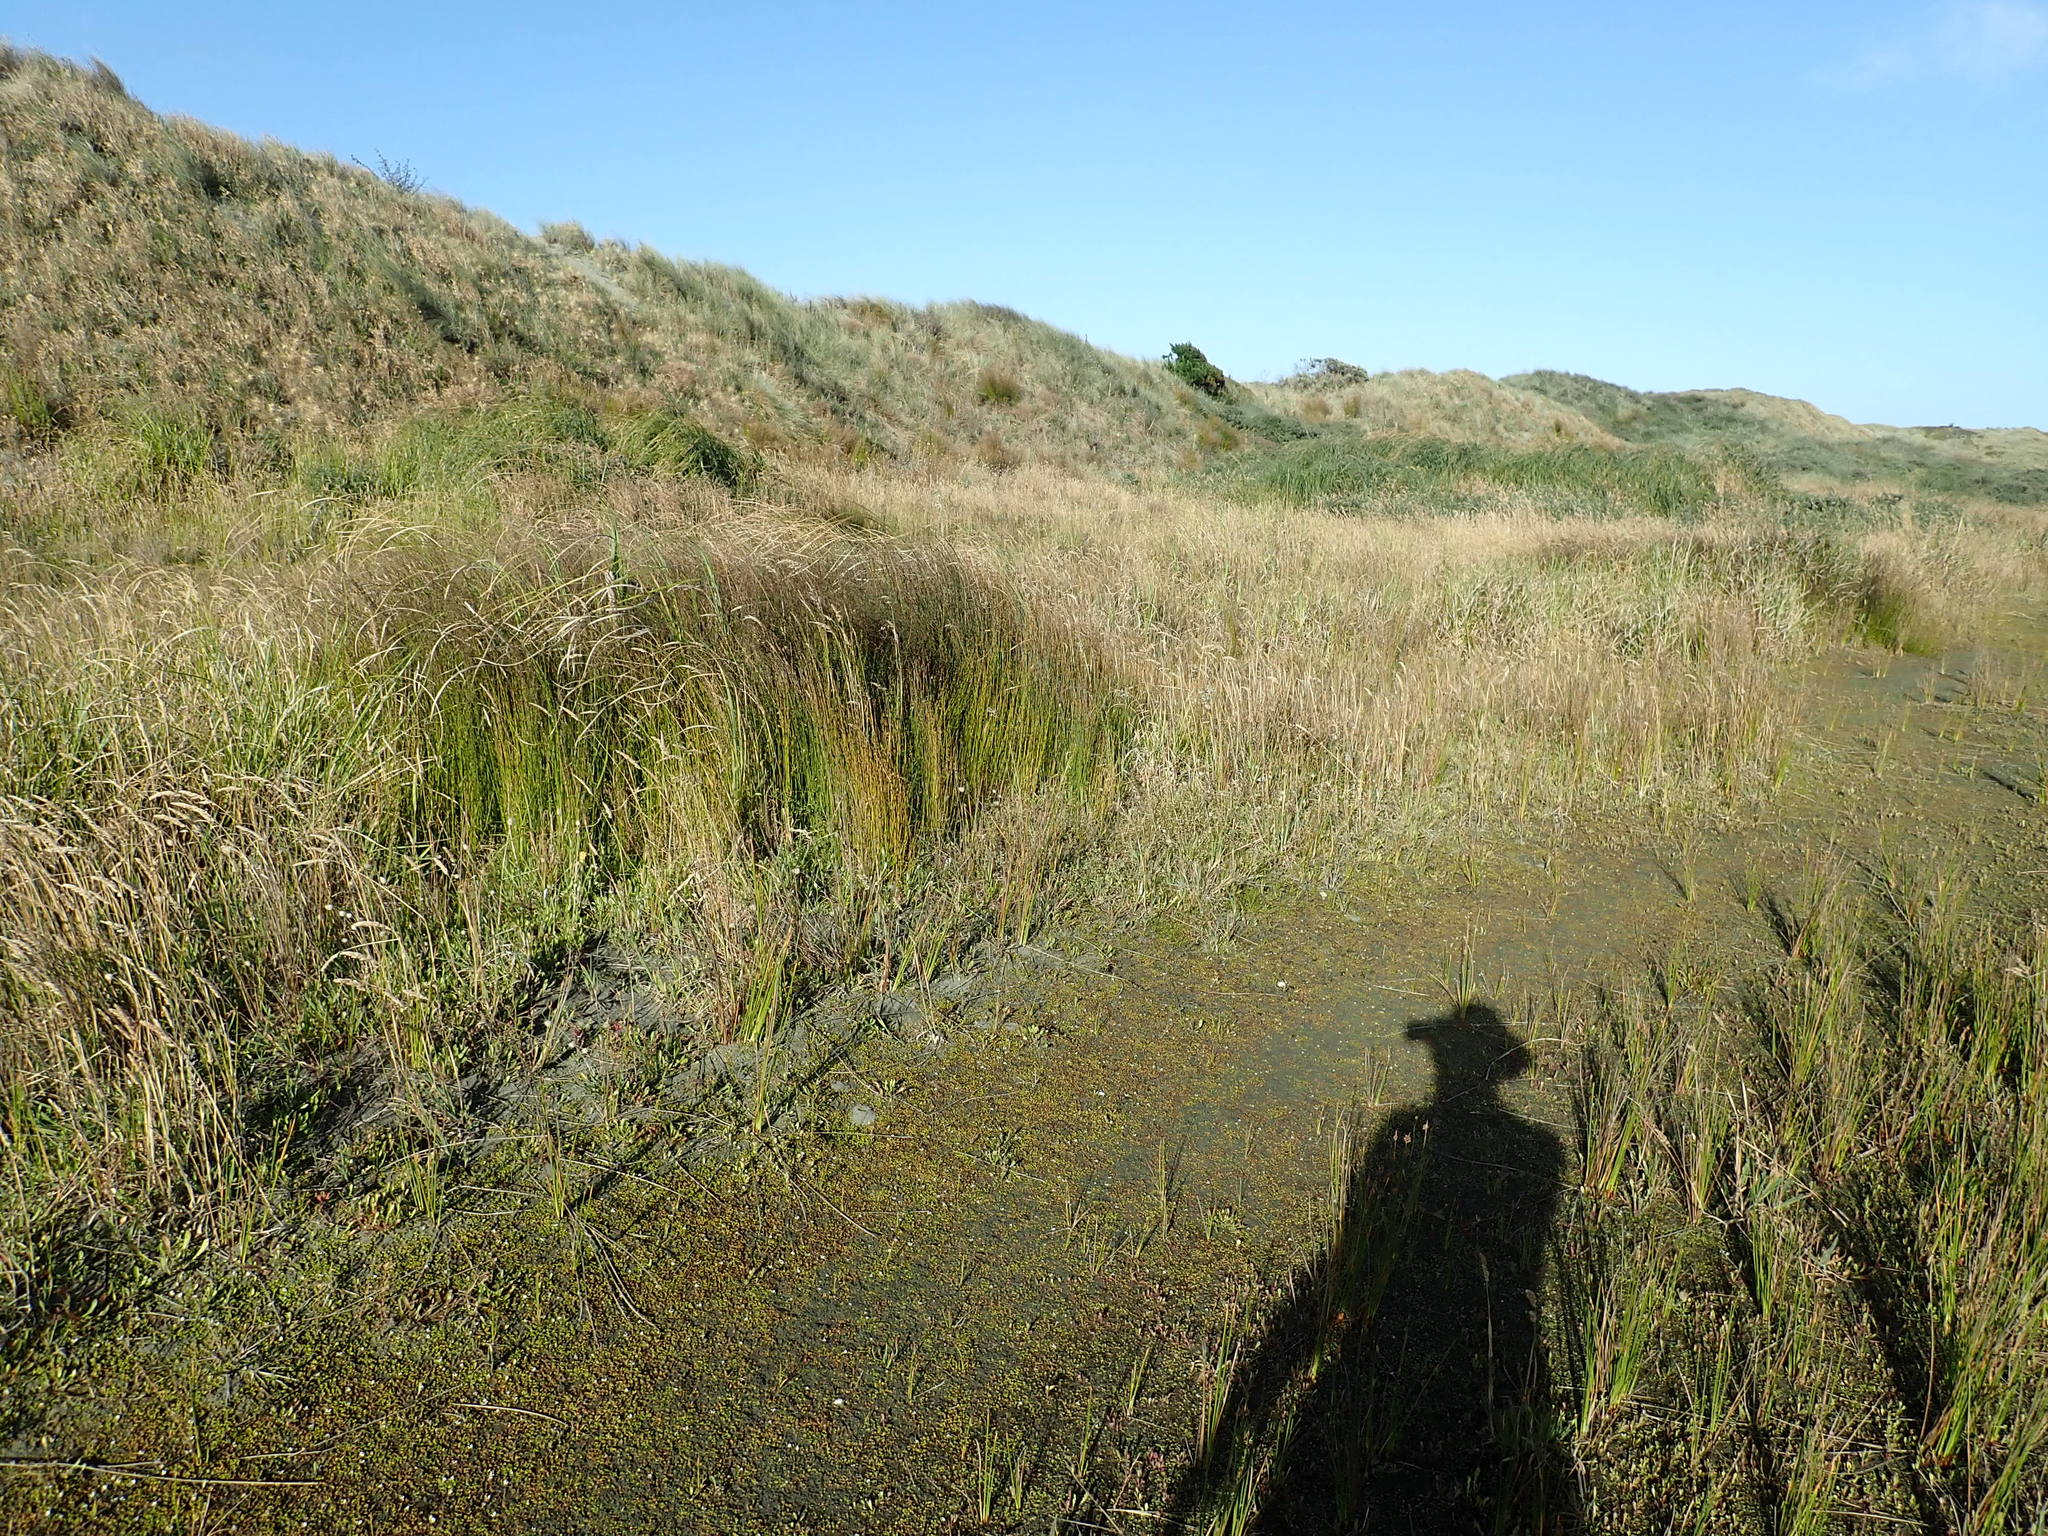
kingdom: Plantae
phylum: Tracheophyta
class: Liliopsida
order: Poales
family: Restionaceae
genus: Apodasmia
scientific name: Apodasmia similis
